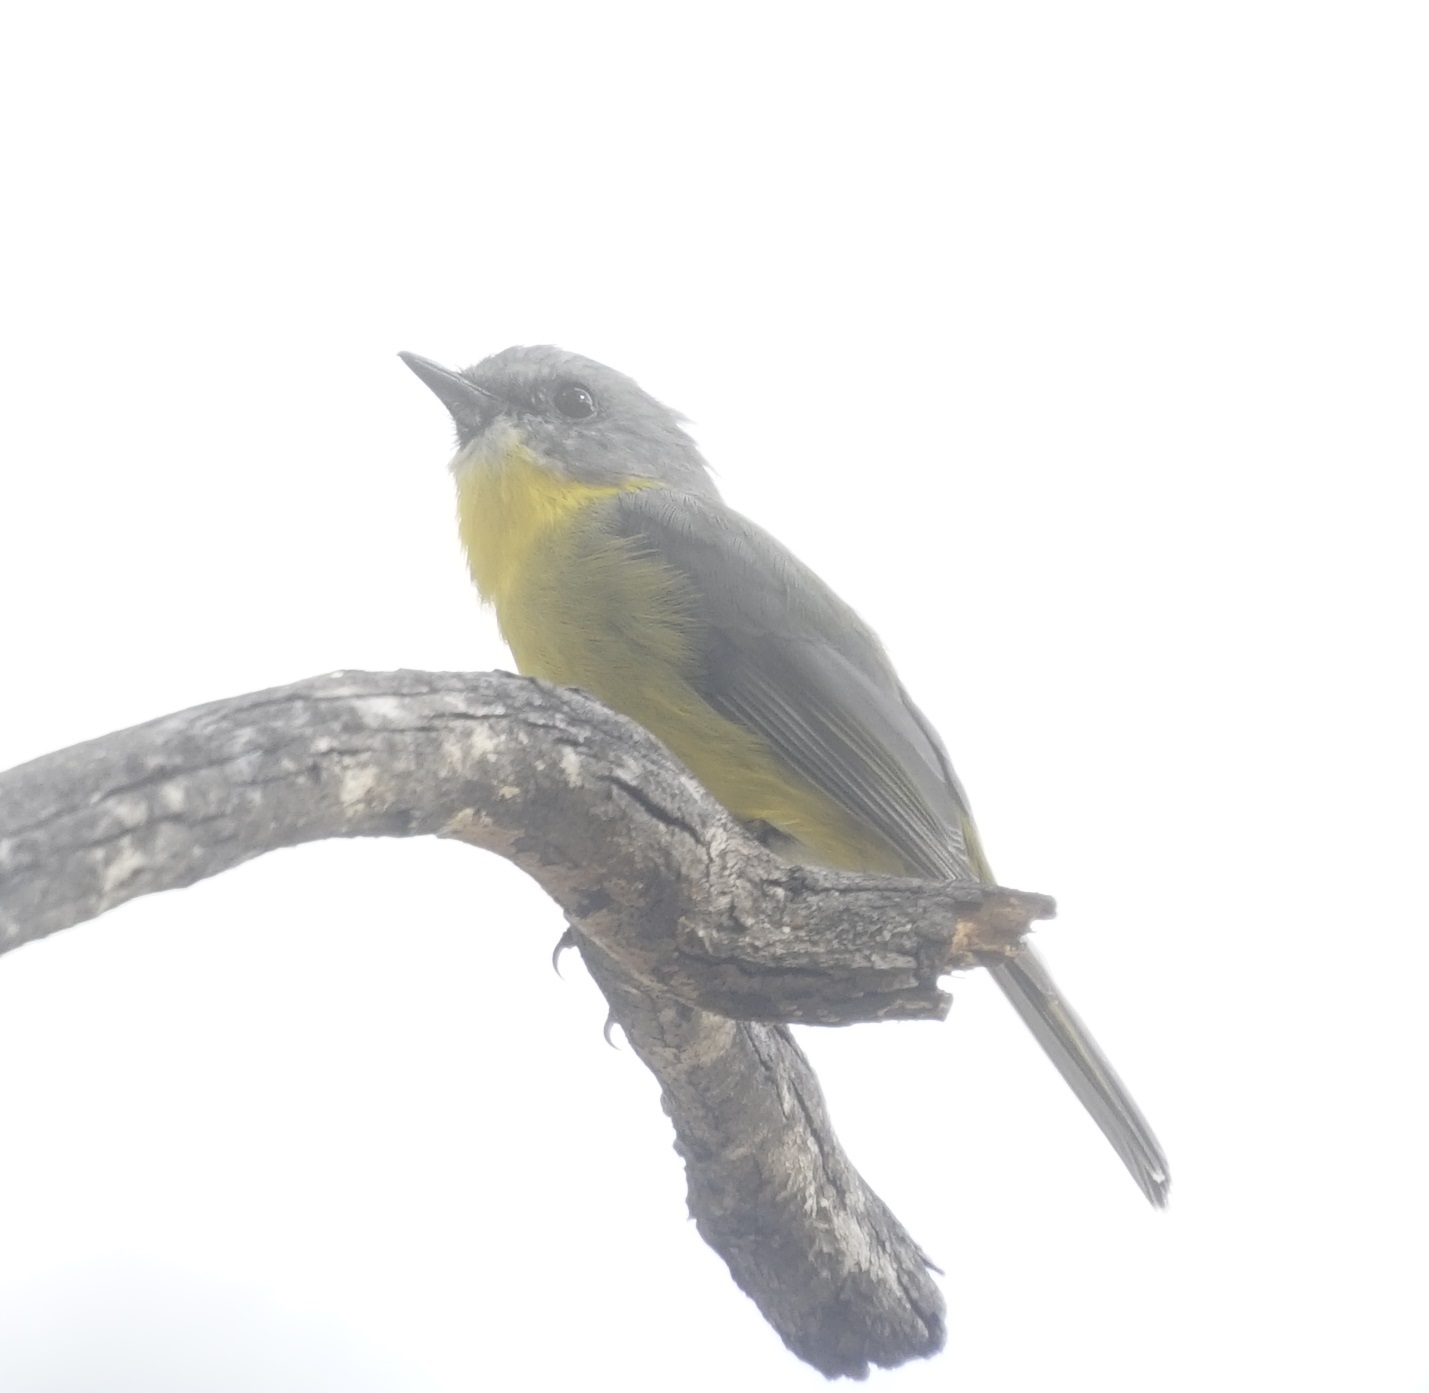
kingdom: Animalia
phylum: Chordata
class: Aves
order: Passeriformes
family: Petroicidae
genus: Eopsaltria
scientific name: Eopsaltria australis
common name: Eastern yellow robin
